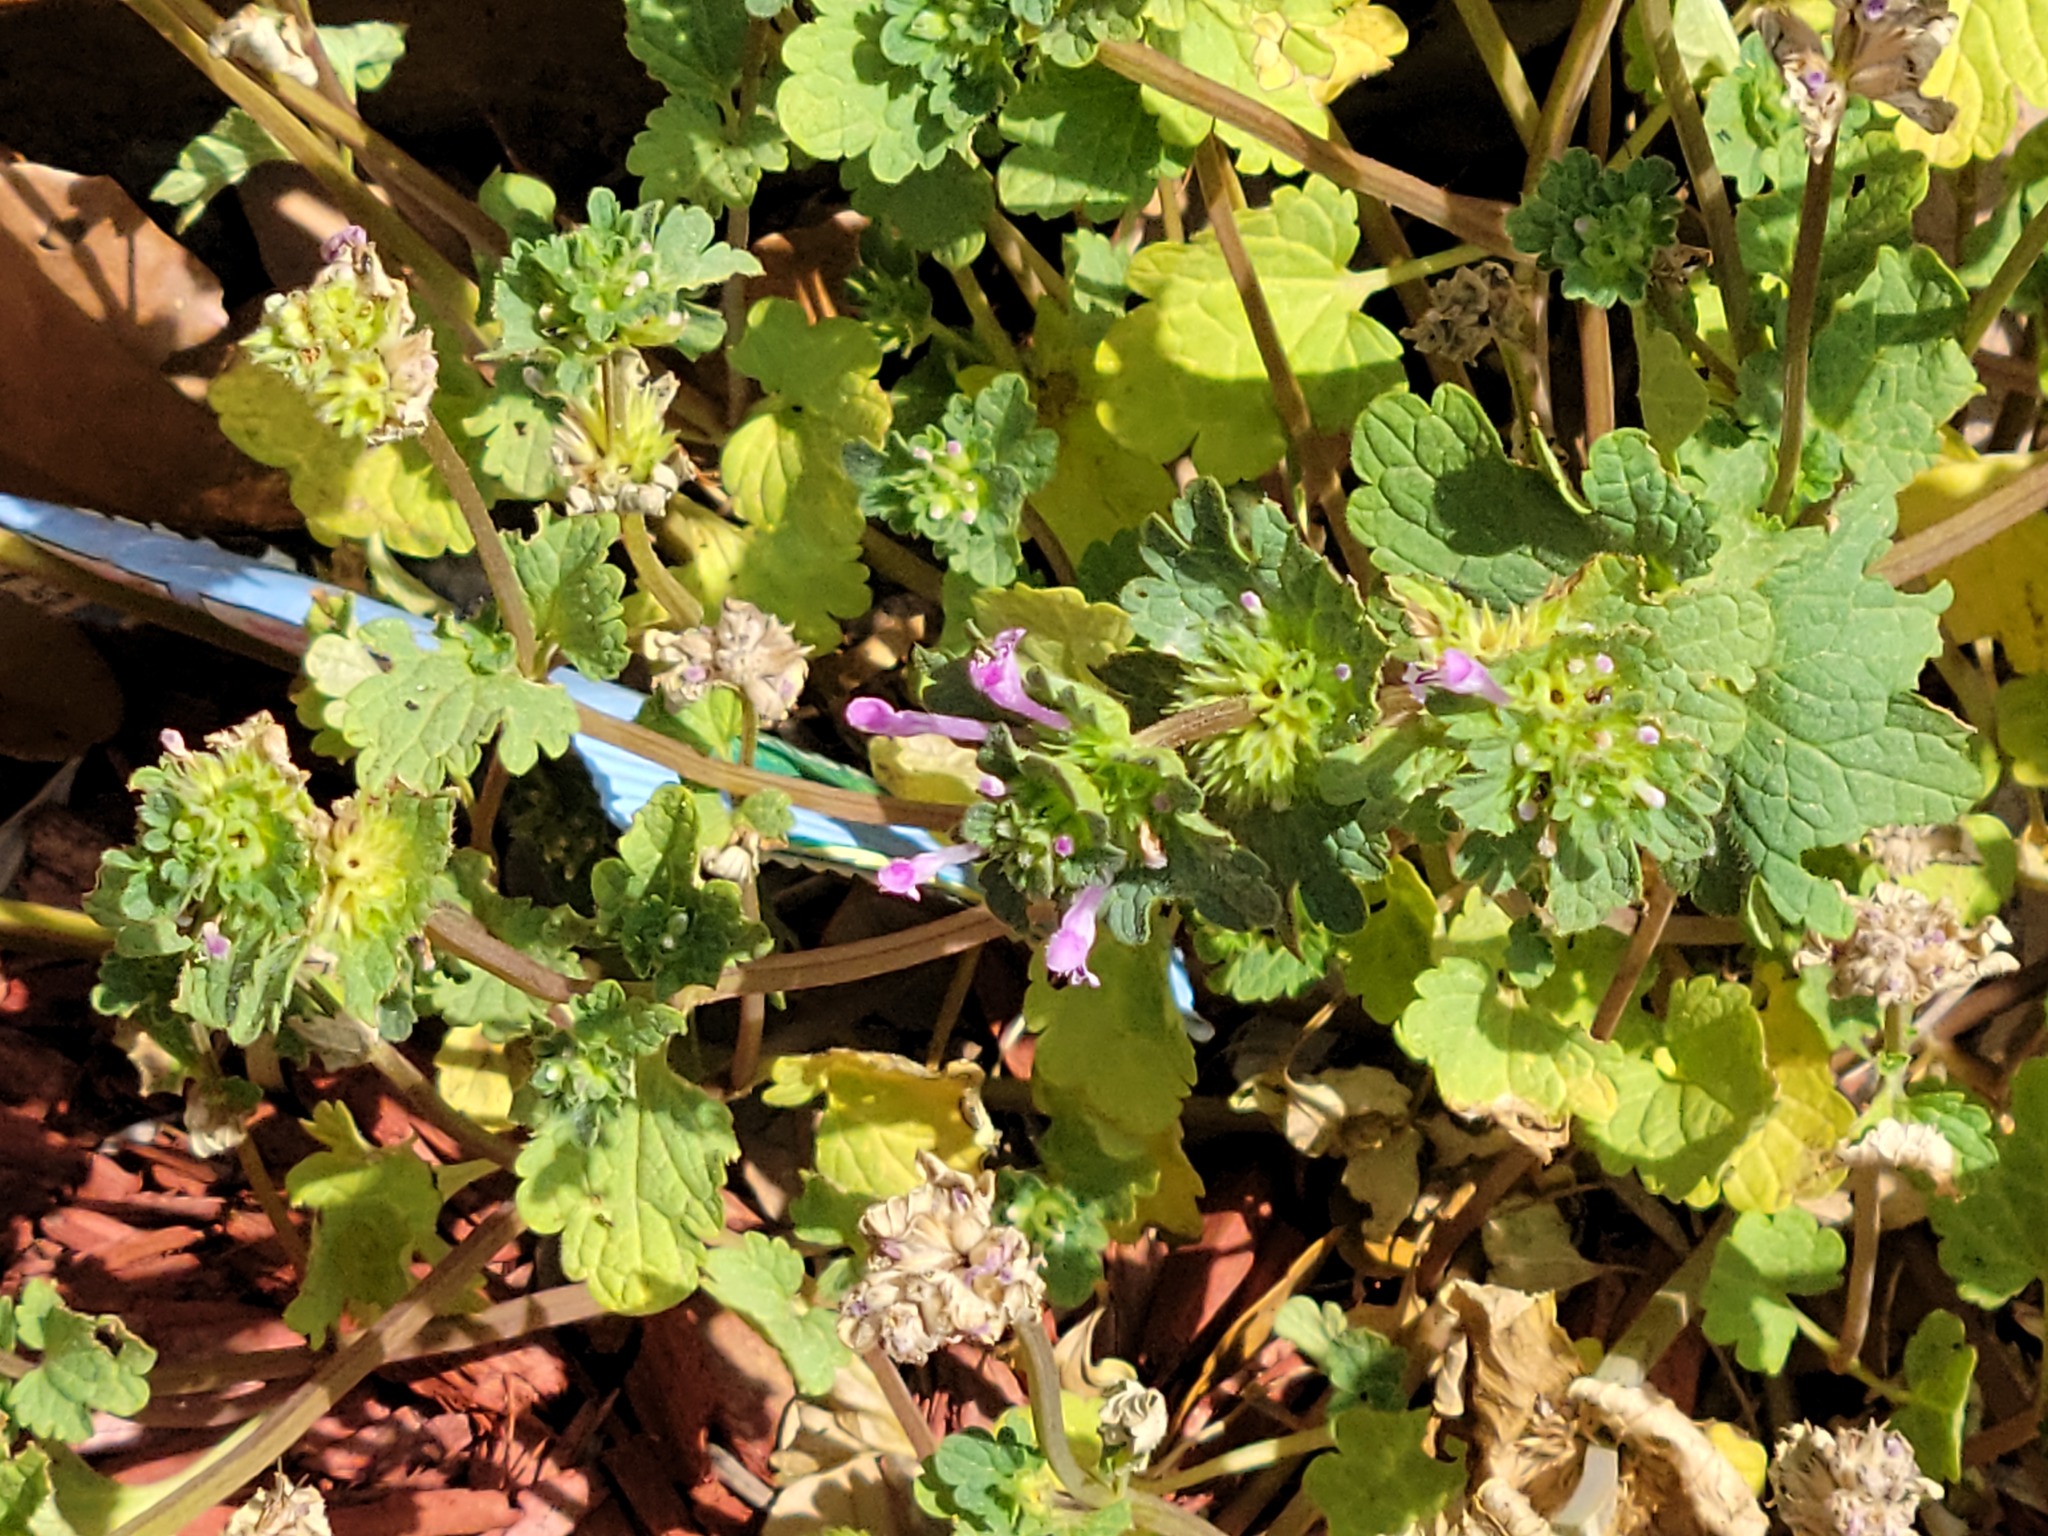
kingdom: Plantae
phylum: Tracheophyta
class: Magnoliopsida
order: Lamiales
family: Lamiaceae
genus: Lamium
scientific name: Lamium amplexicaule
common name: Henbit dead-nettle
